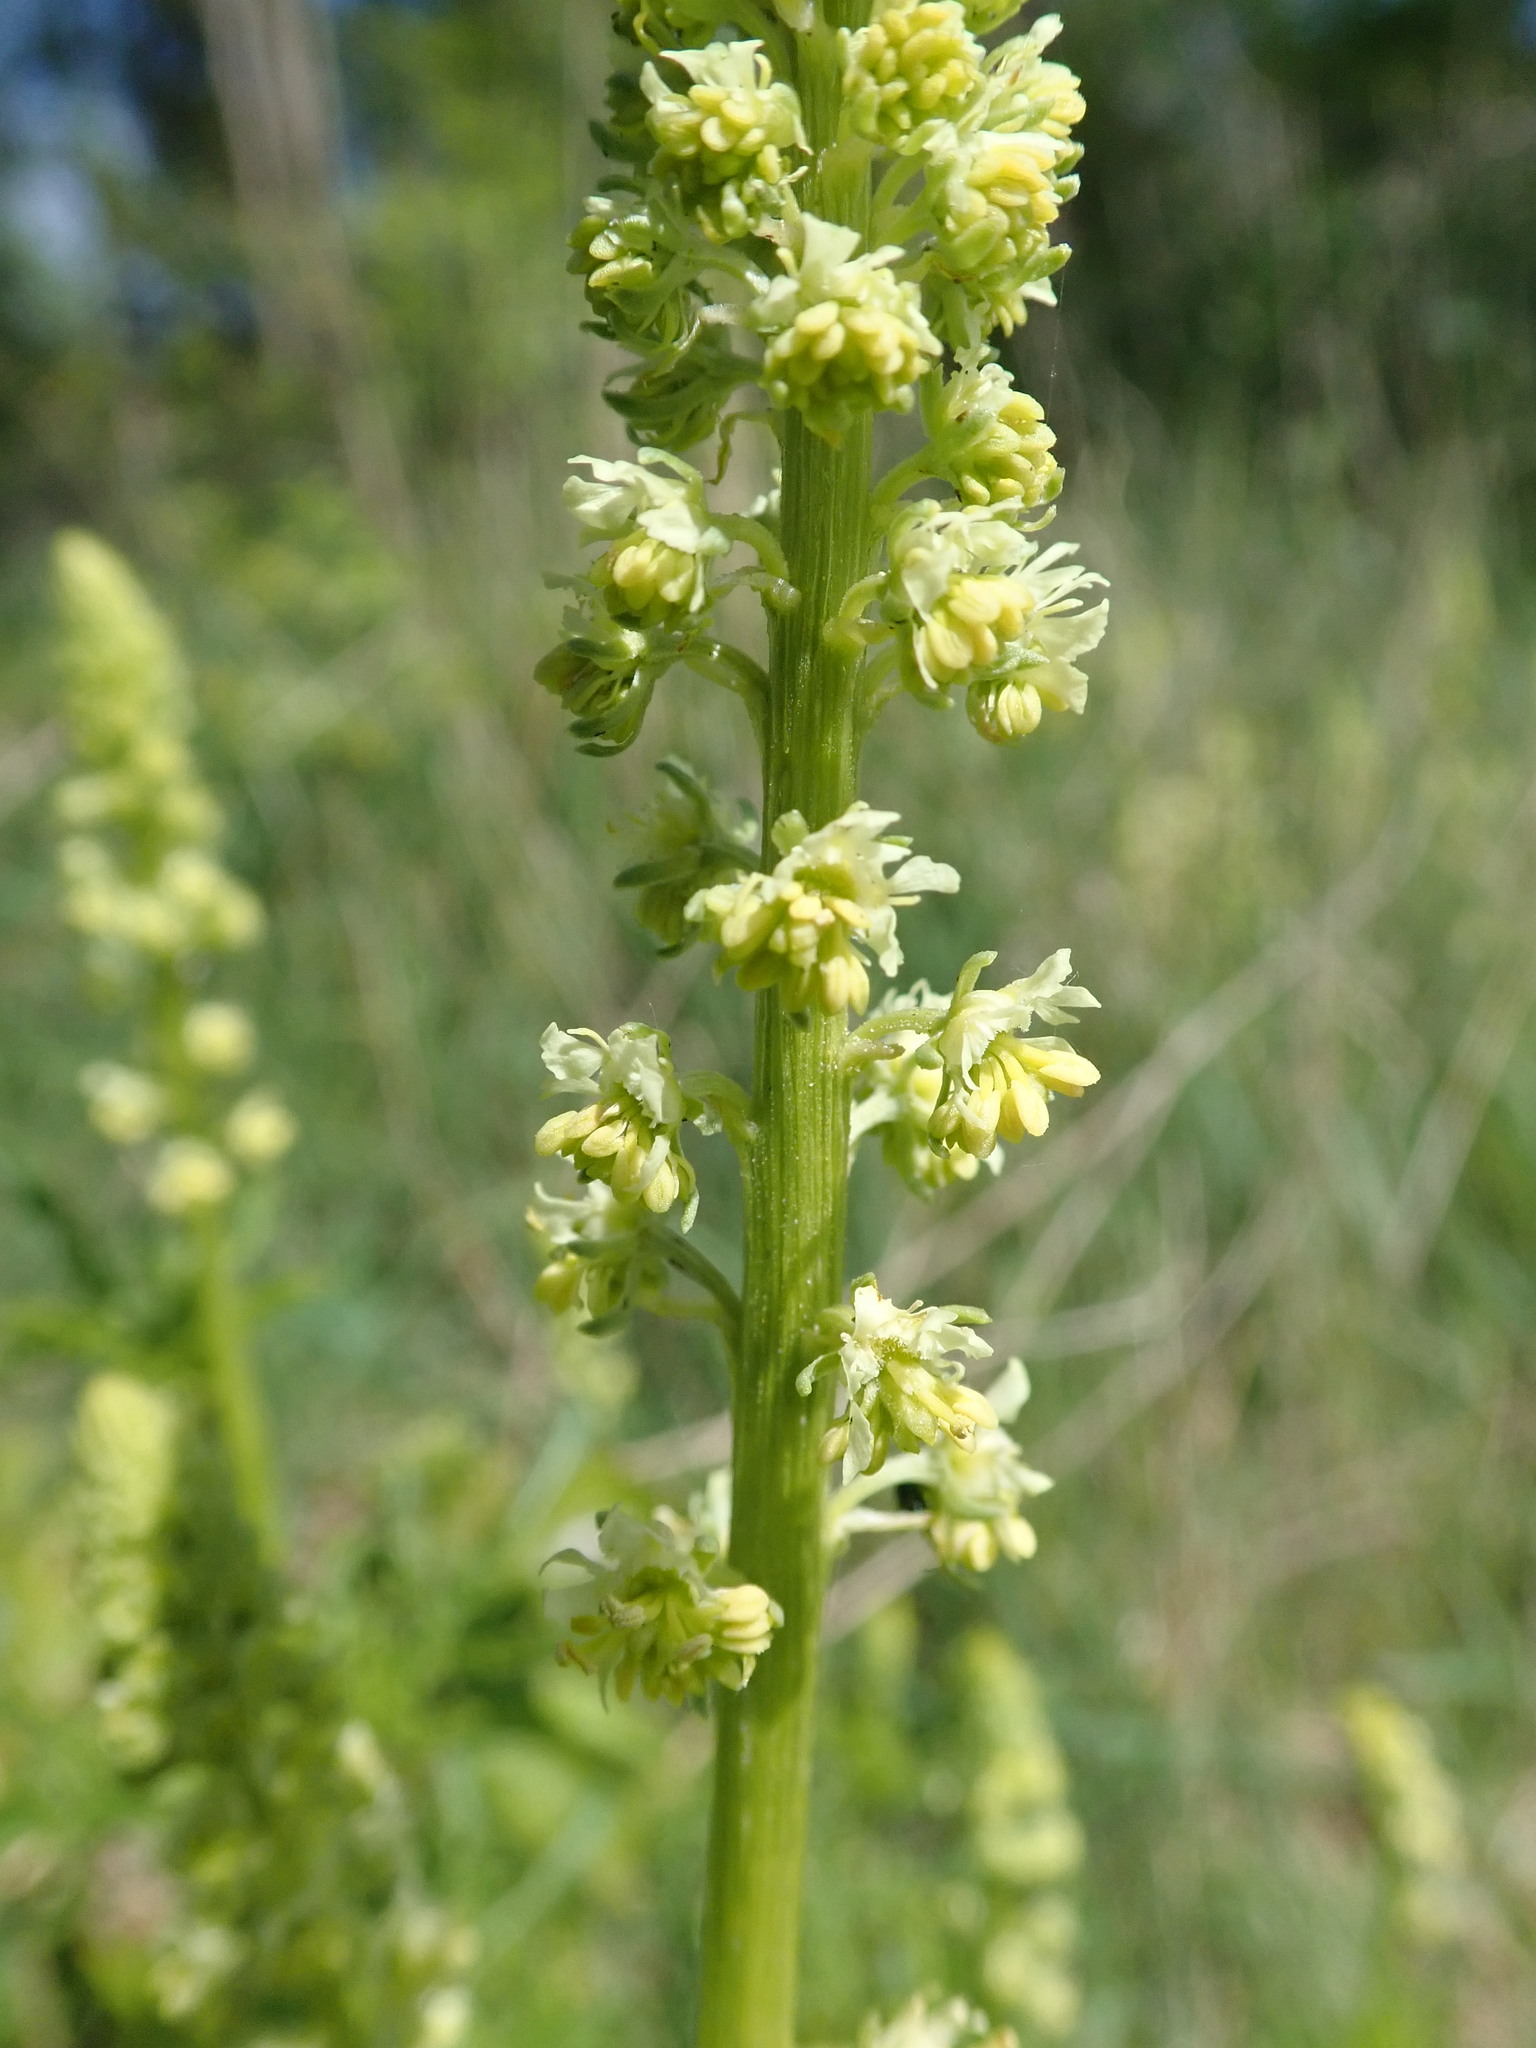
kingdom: Plantae
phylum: Tracheophyta
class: Magnoliopsida
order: Brassicales
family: Resedaceae
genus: Reseda
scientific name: Reseda lutea
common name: Wild mignonette
